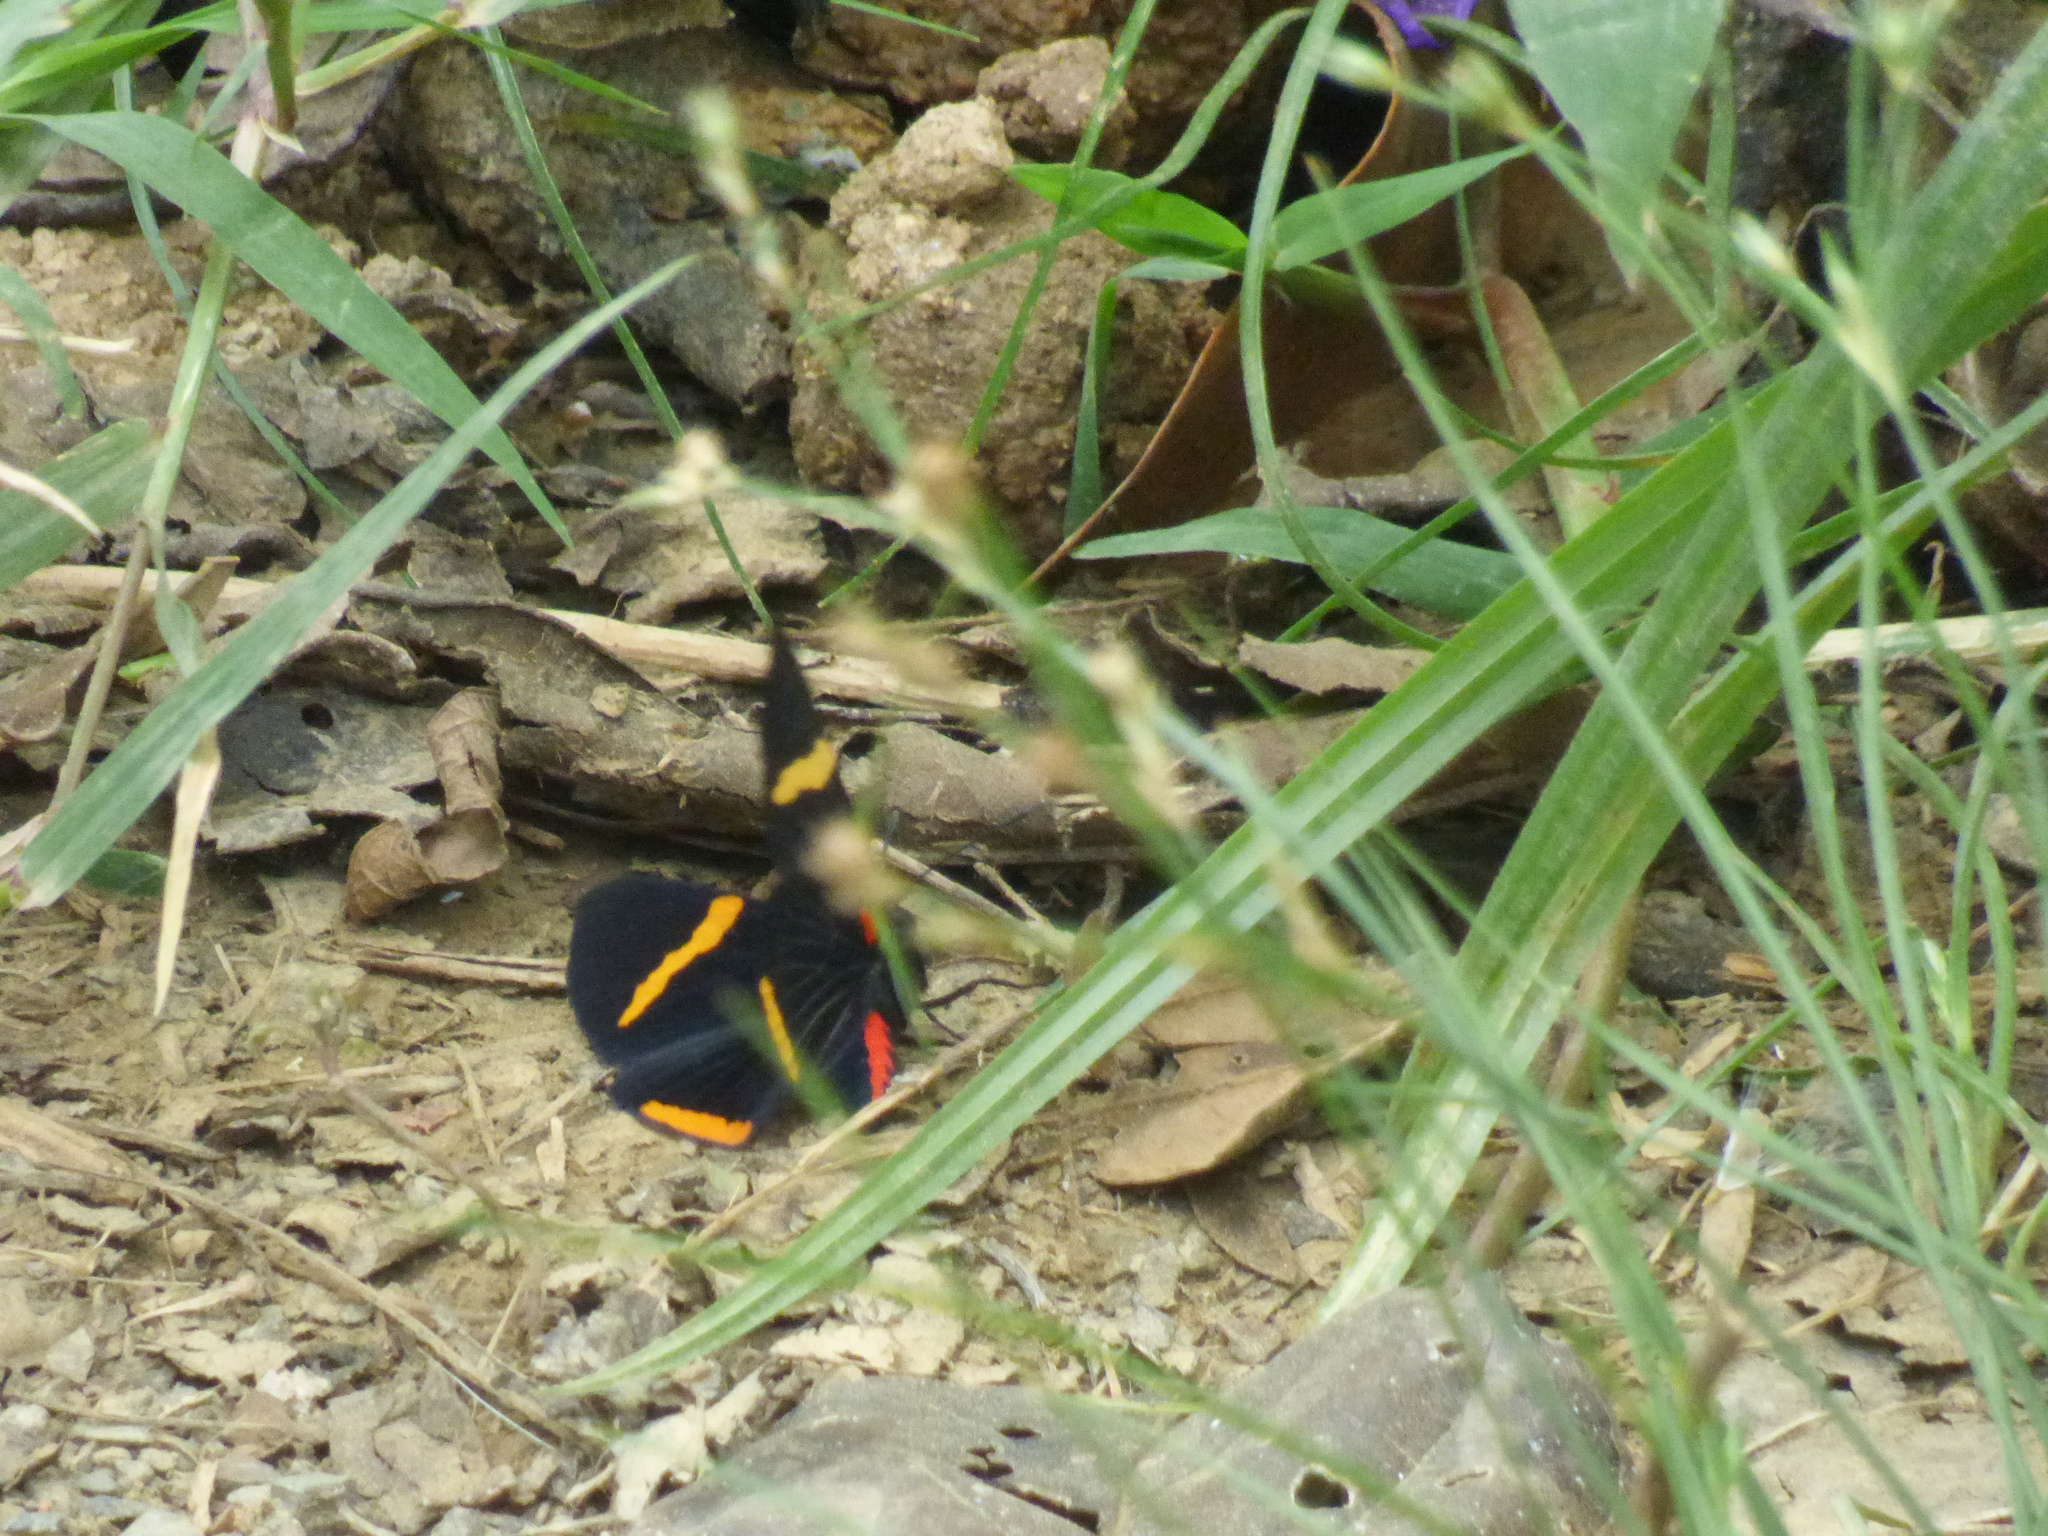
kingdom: Animalia
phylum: Arthropoda
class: Insecta
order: Lepidoptera
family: Lycaenidae
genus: Melanis
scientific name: Melanis
